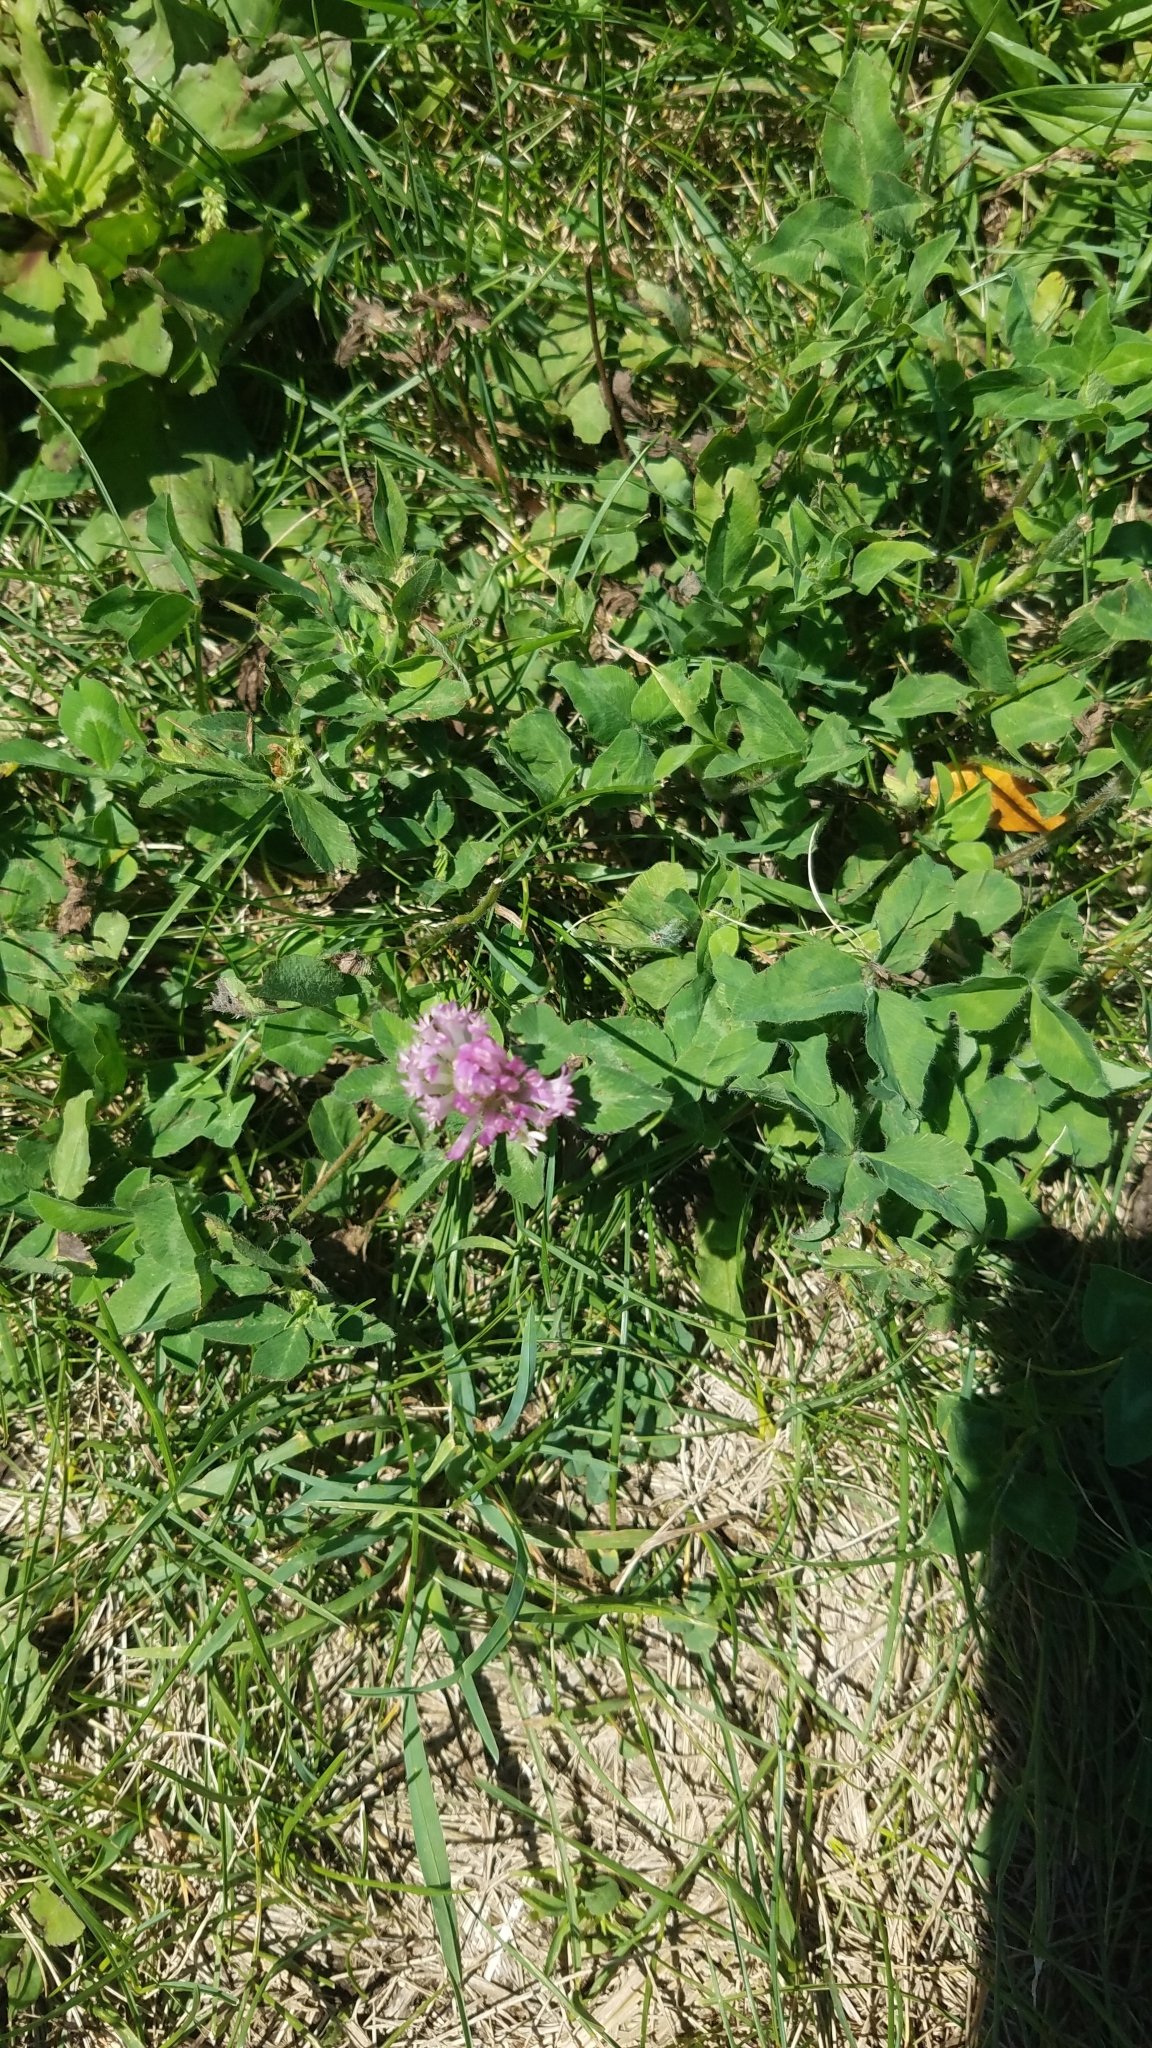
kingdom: Plantae
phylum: Tracheophyta
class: Magnoliopsida
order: Fabales
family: Fabaceae
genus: Trifolium
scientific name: Trifolium pratense
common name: Red clover
